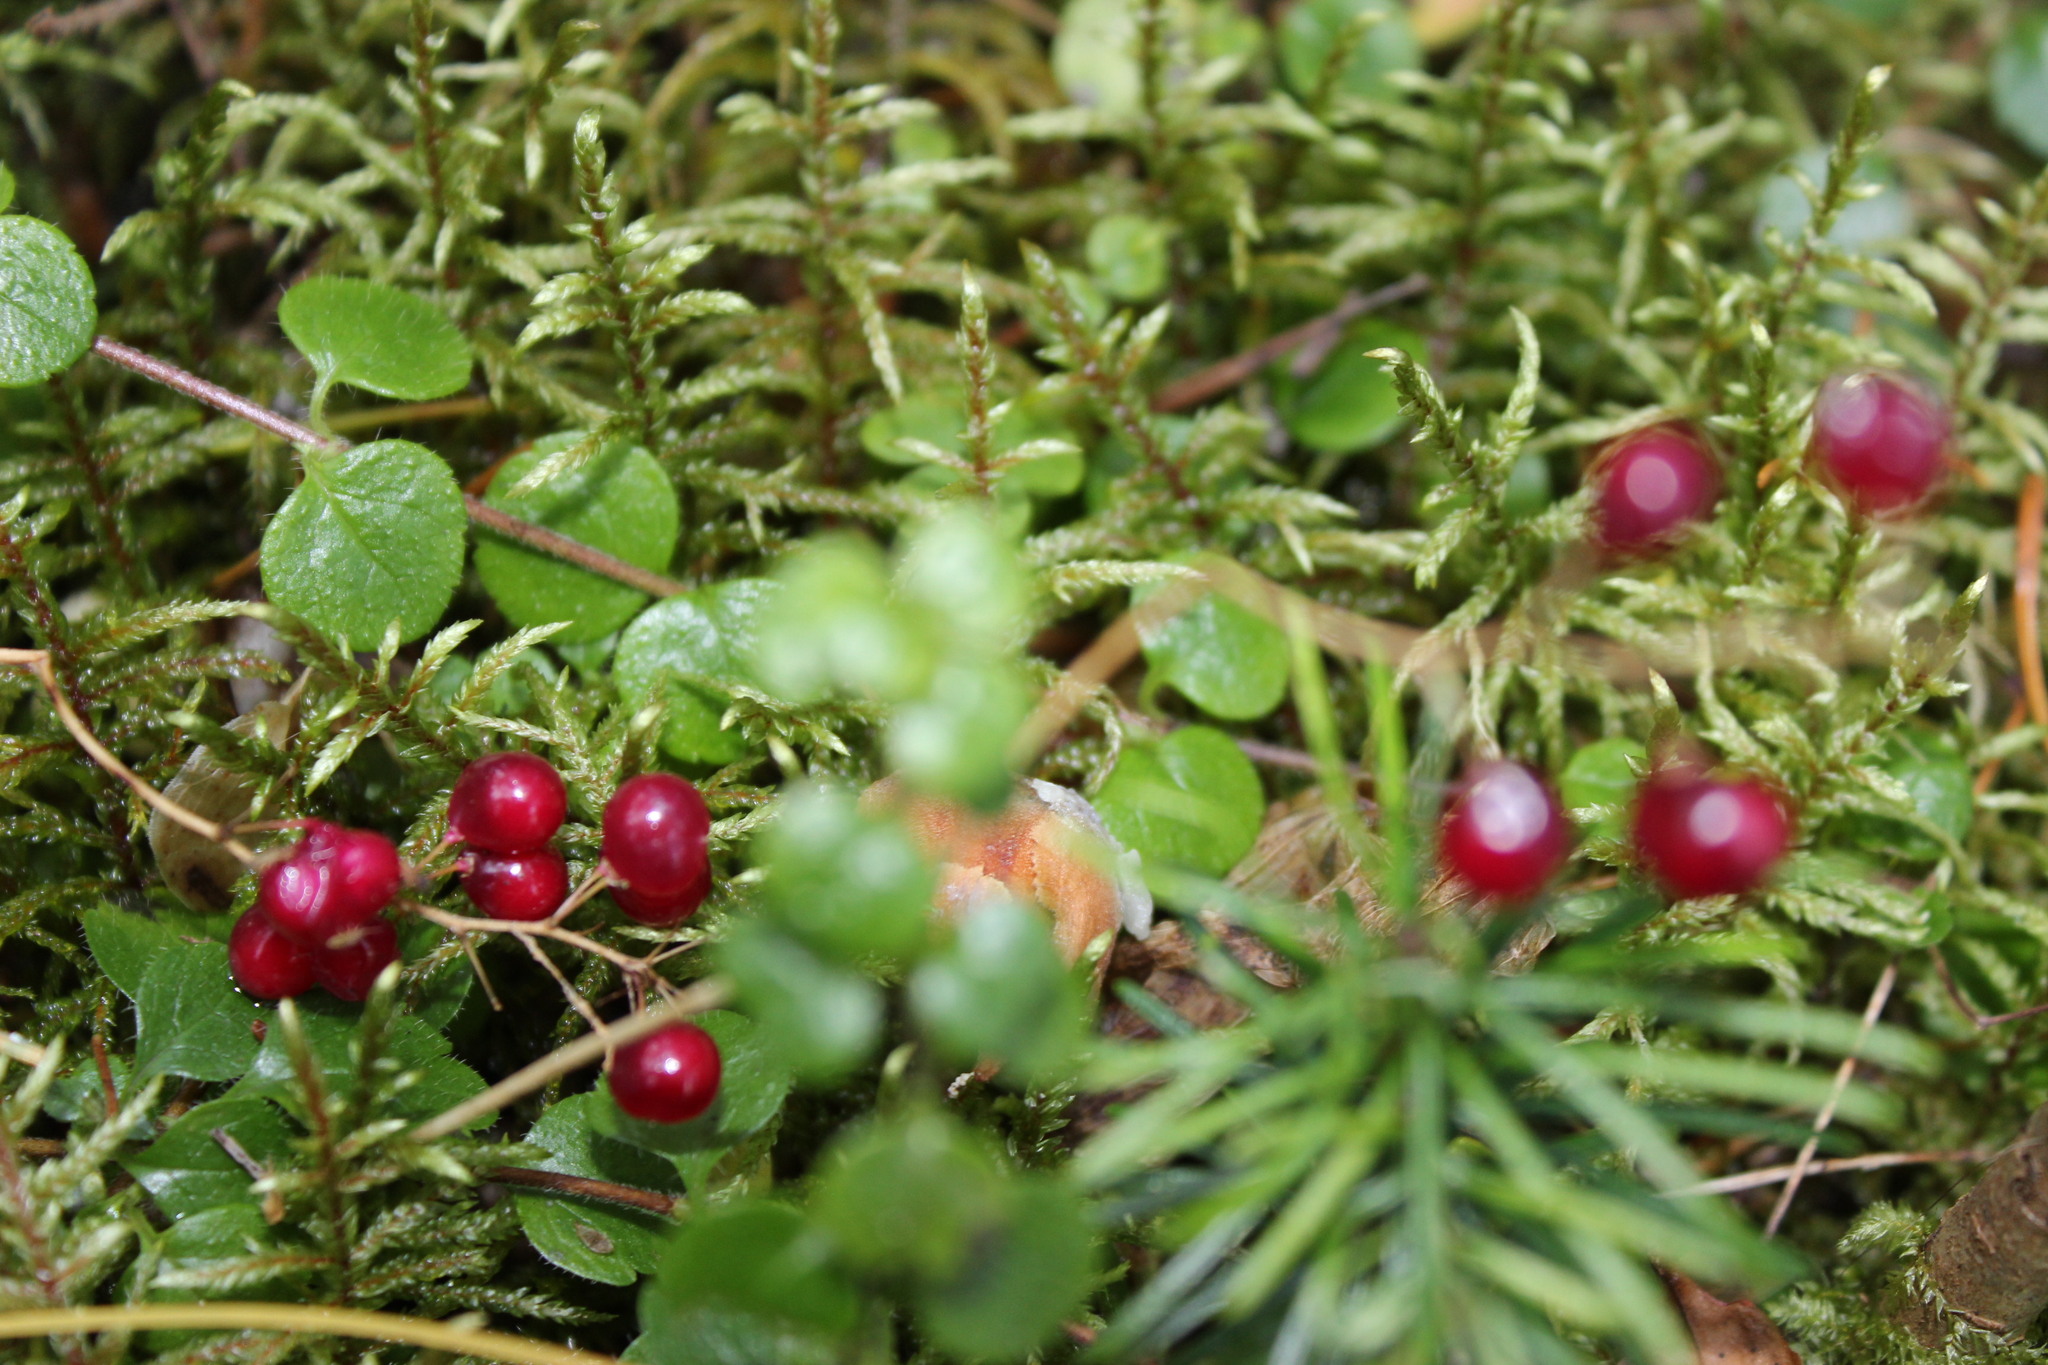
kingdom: Plantae
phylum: Tracheophyta
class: Liliopsida
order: Asparagales
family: Asparagaceae
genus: Maianthemum
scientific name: Maianthemum bifolium
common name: May lily
